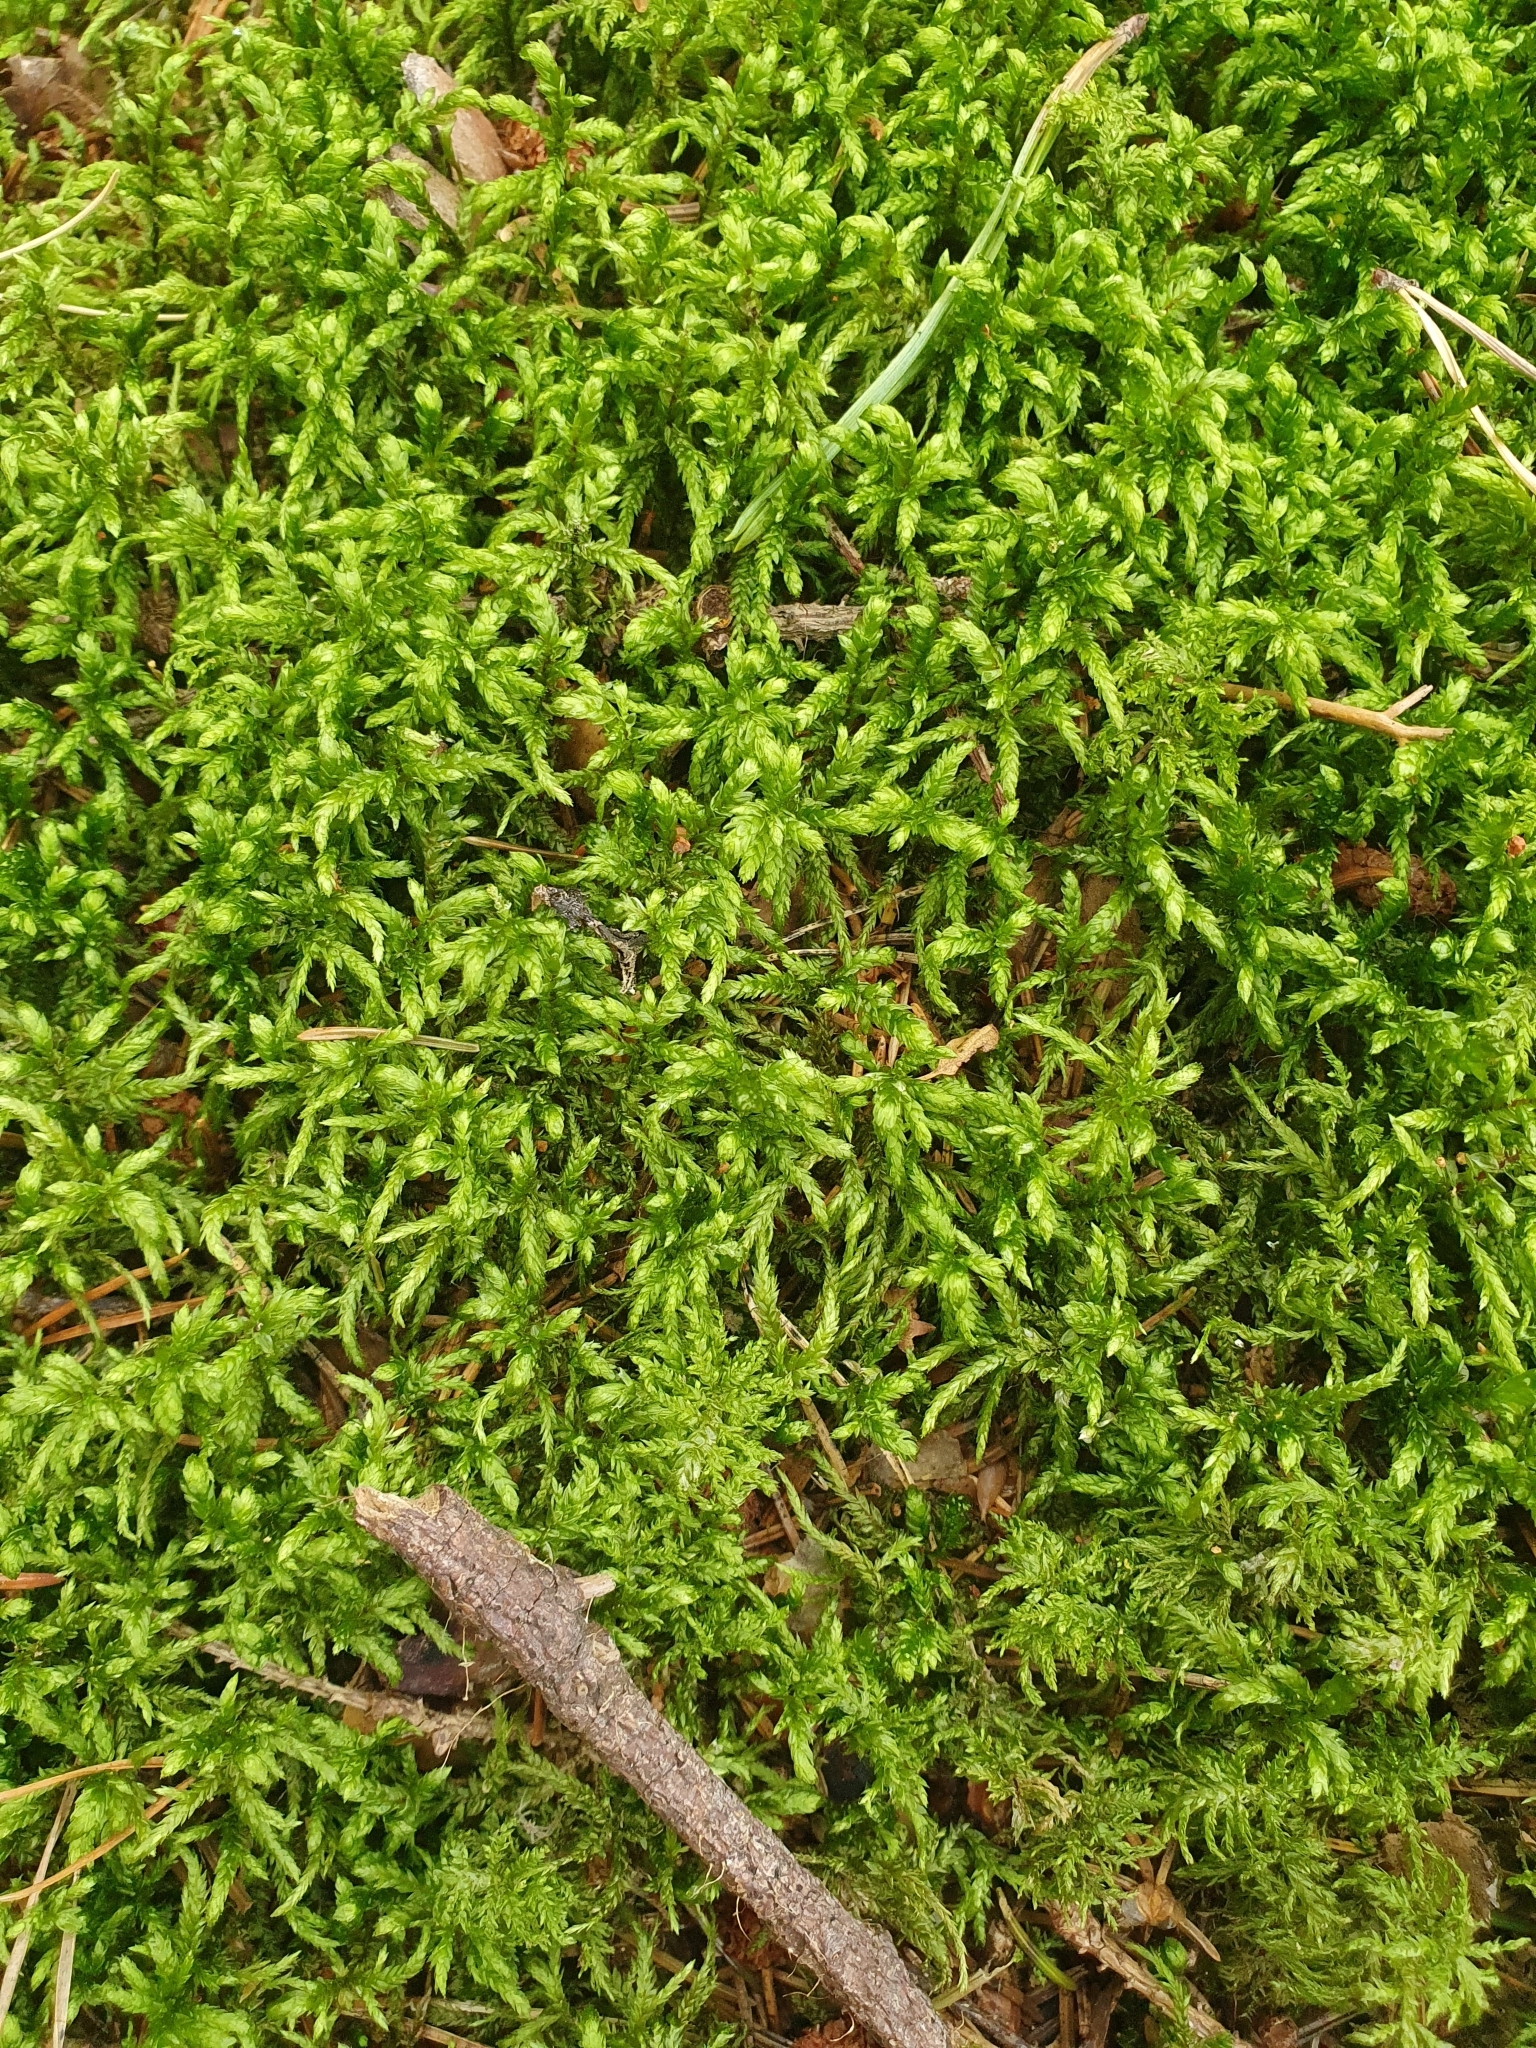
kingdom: Plantae
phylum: Bryophyta
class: Bryopsida
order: Hypnales
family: Hylocomiaceae
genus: Pleurozium
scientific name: Pleurozium schreberi
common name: Red-stemmed feather moss
